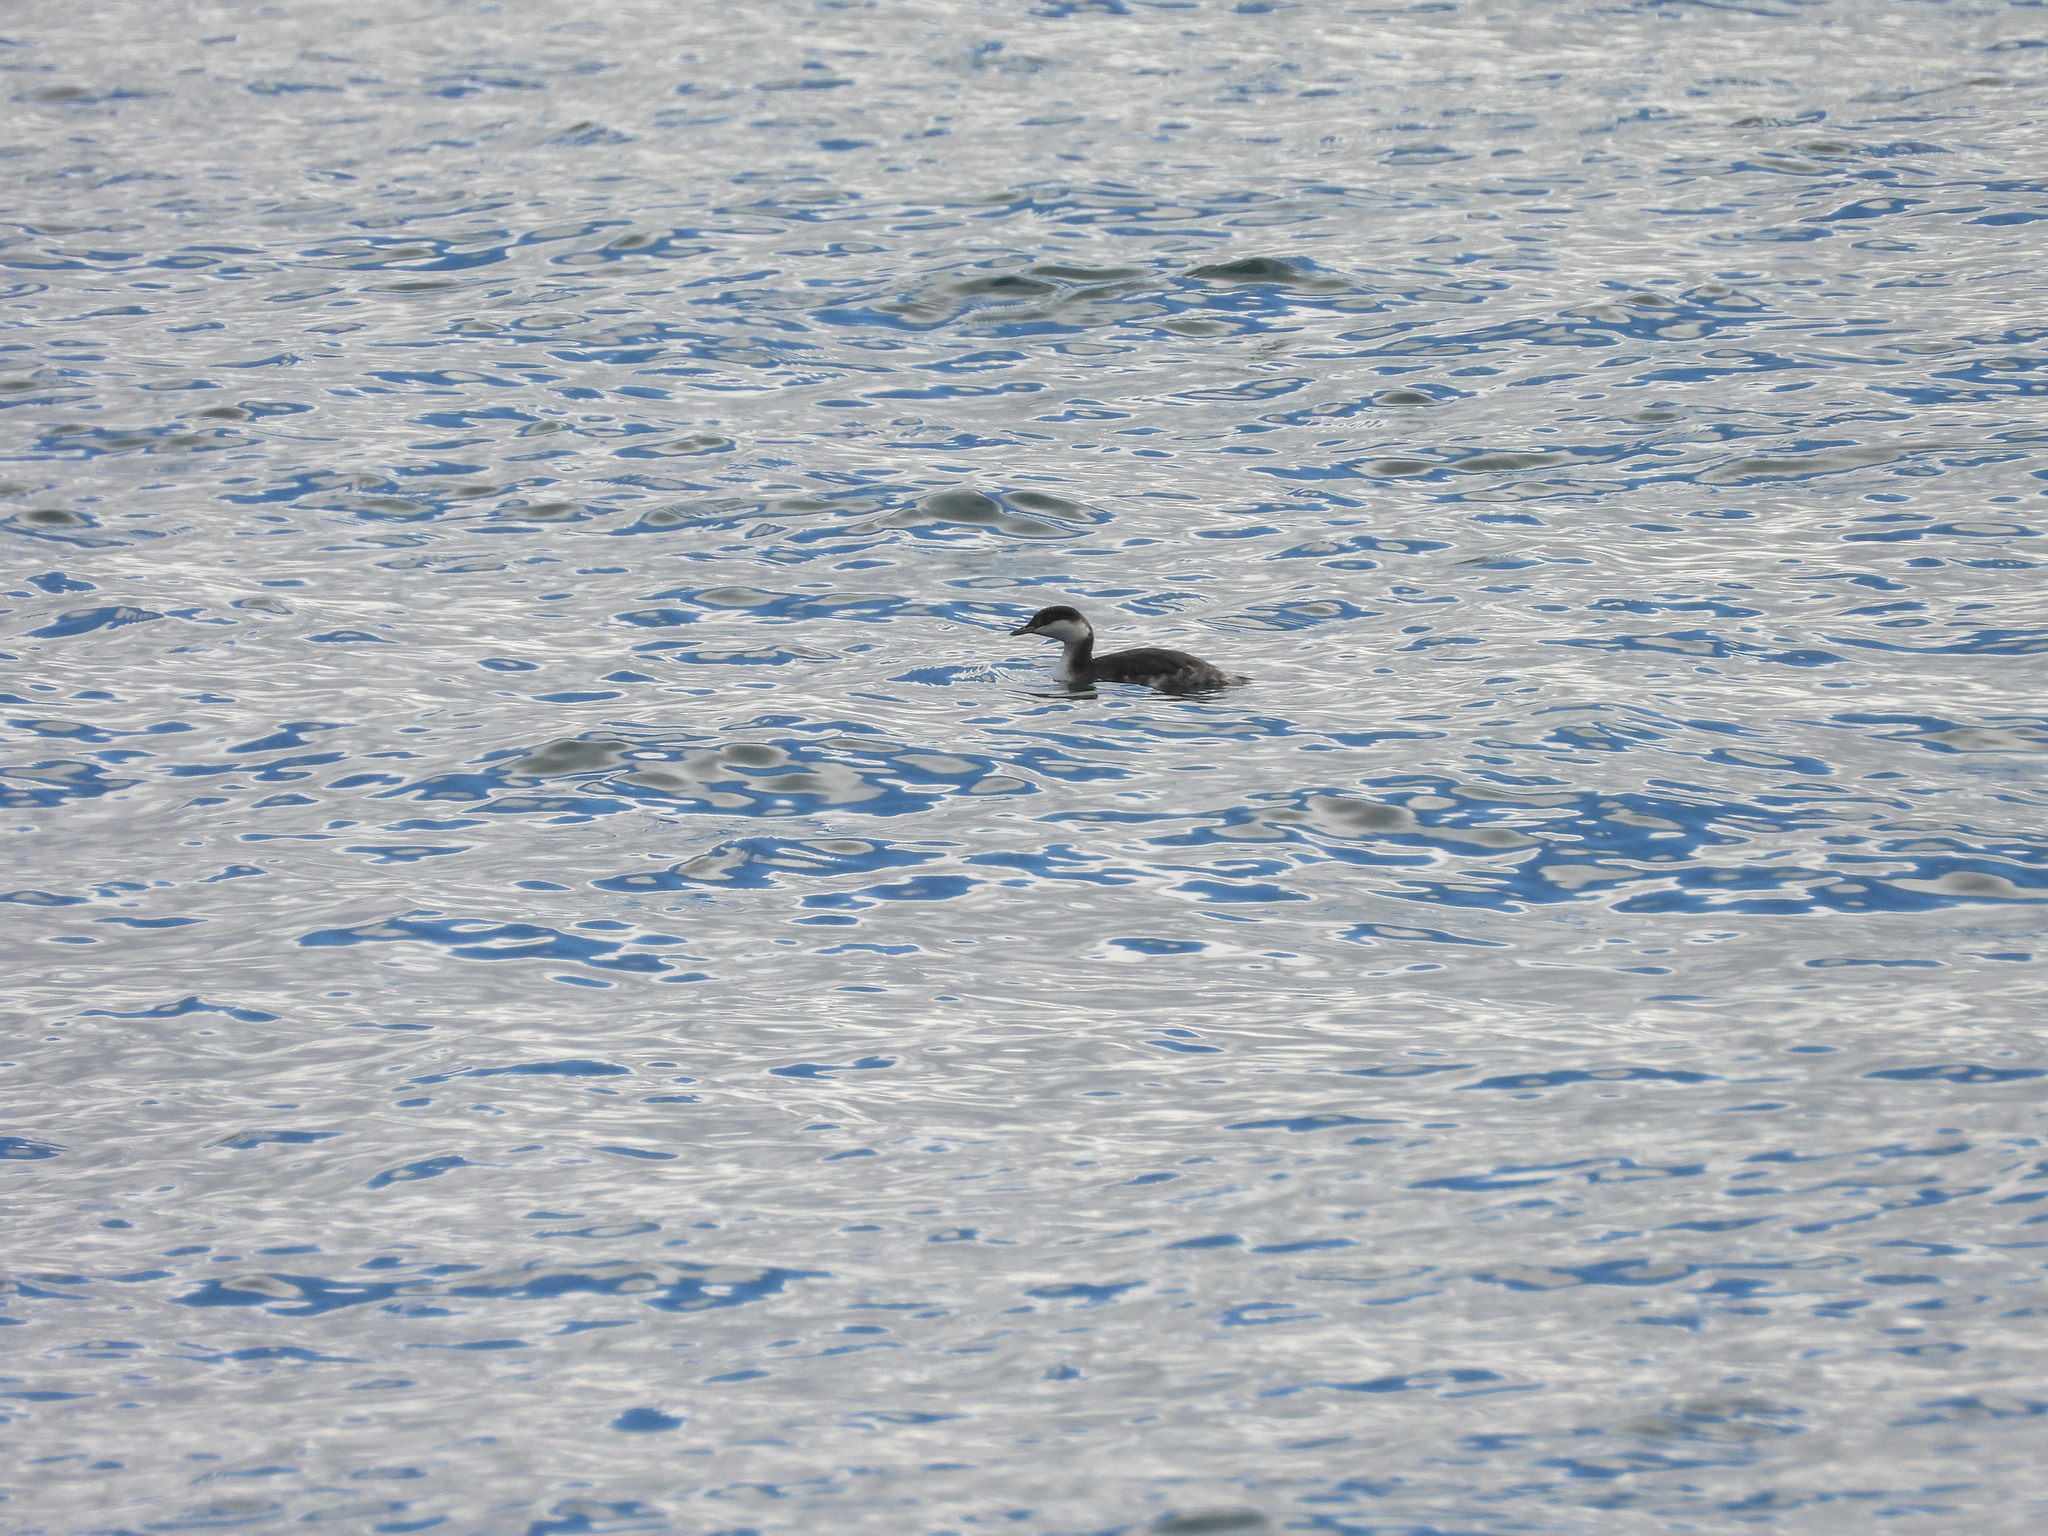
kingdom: Animalia
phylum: Chordata
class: Aves
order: Podicipediformes
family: Podicipedidae
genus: Podiceps
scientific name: Podiceps auritus
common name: Horned grebe
